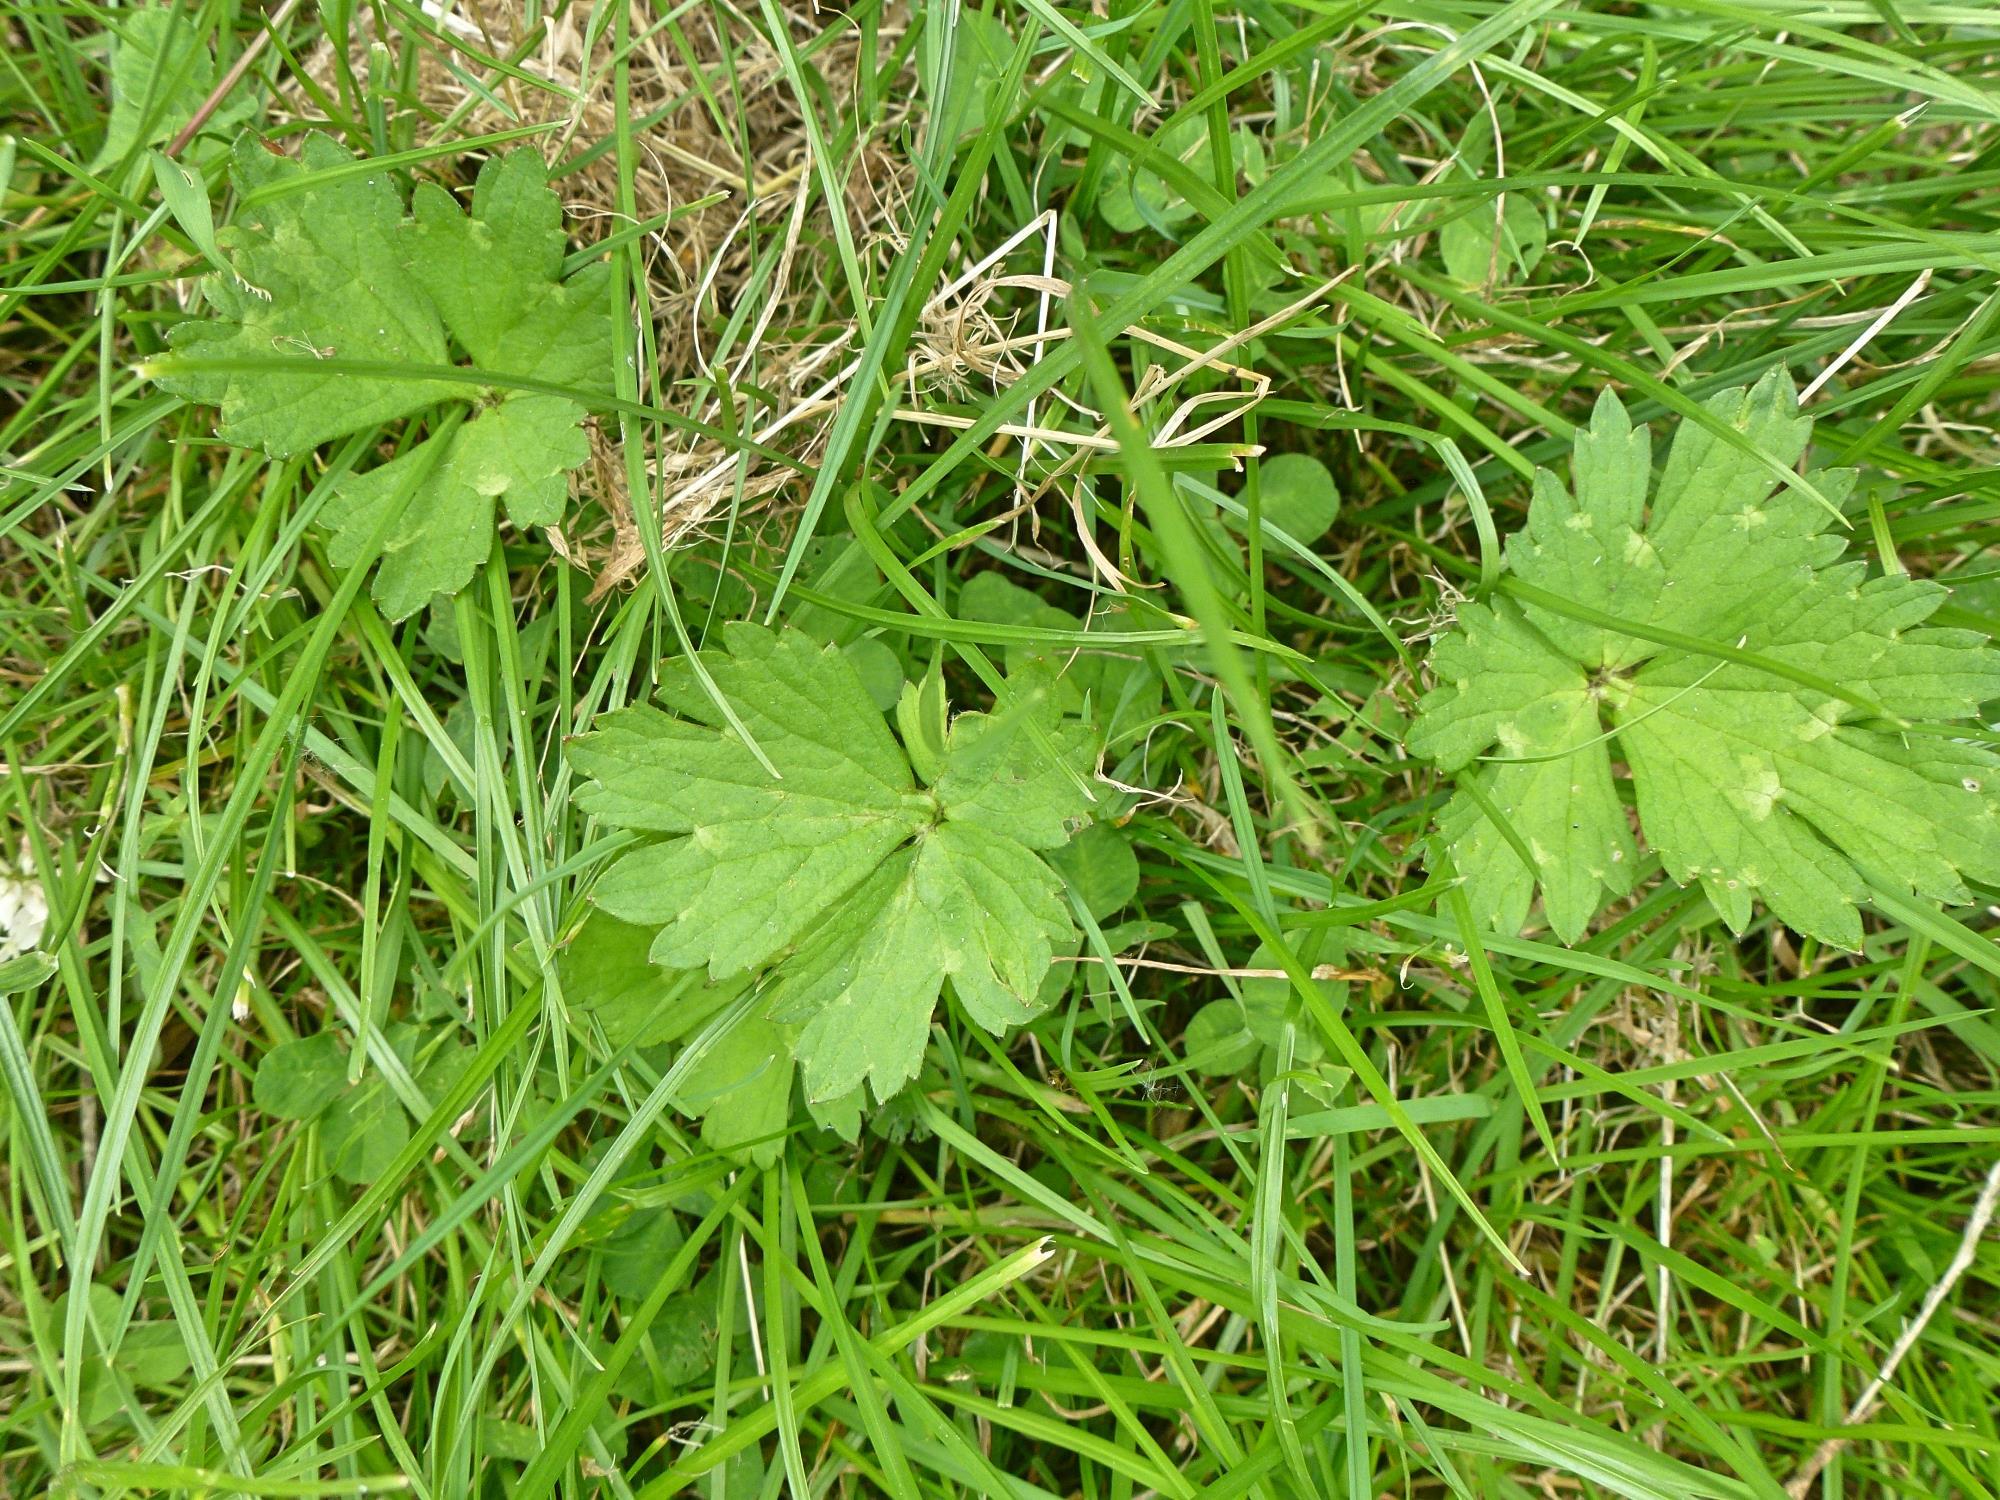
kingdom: Plantae
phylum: Tracheophyta
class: Magnoliopsida
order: Ranunculales
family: Ranunculaceae
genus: Ranunculus
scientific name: Ranunculus repens
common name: Creeping buttercup
